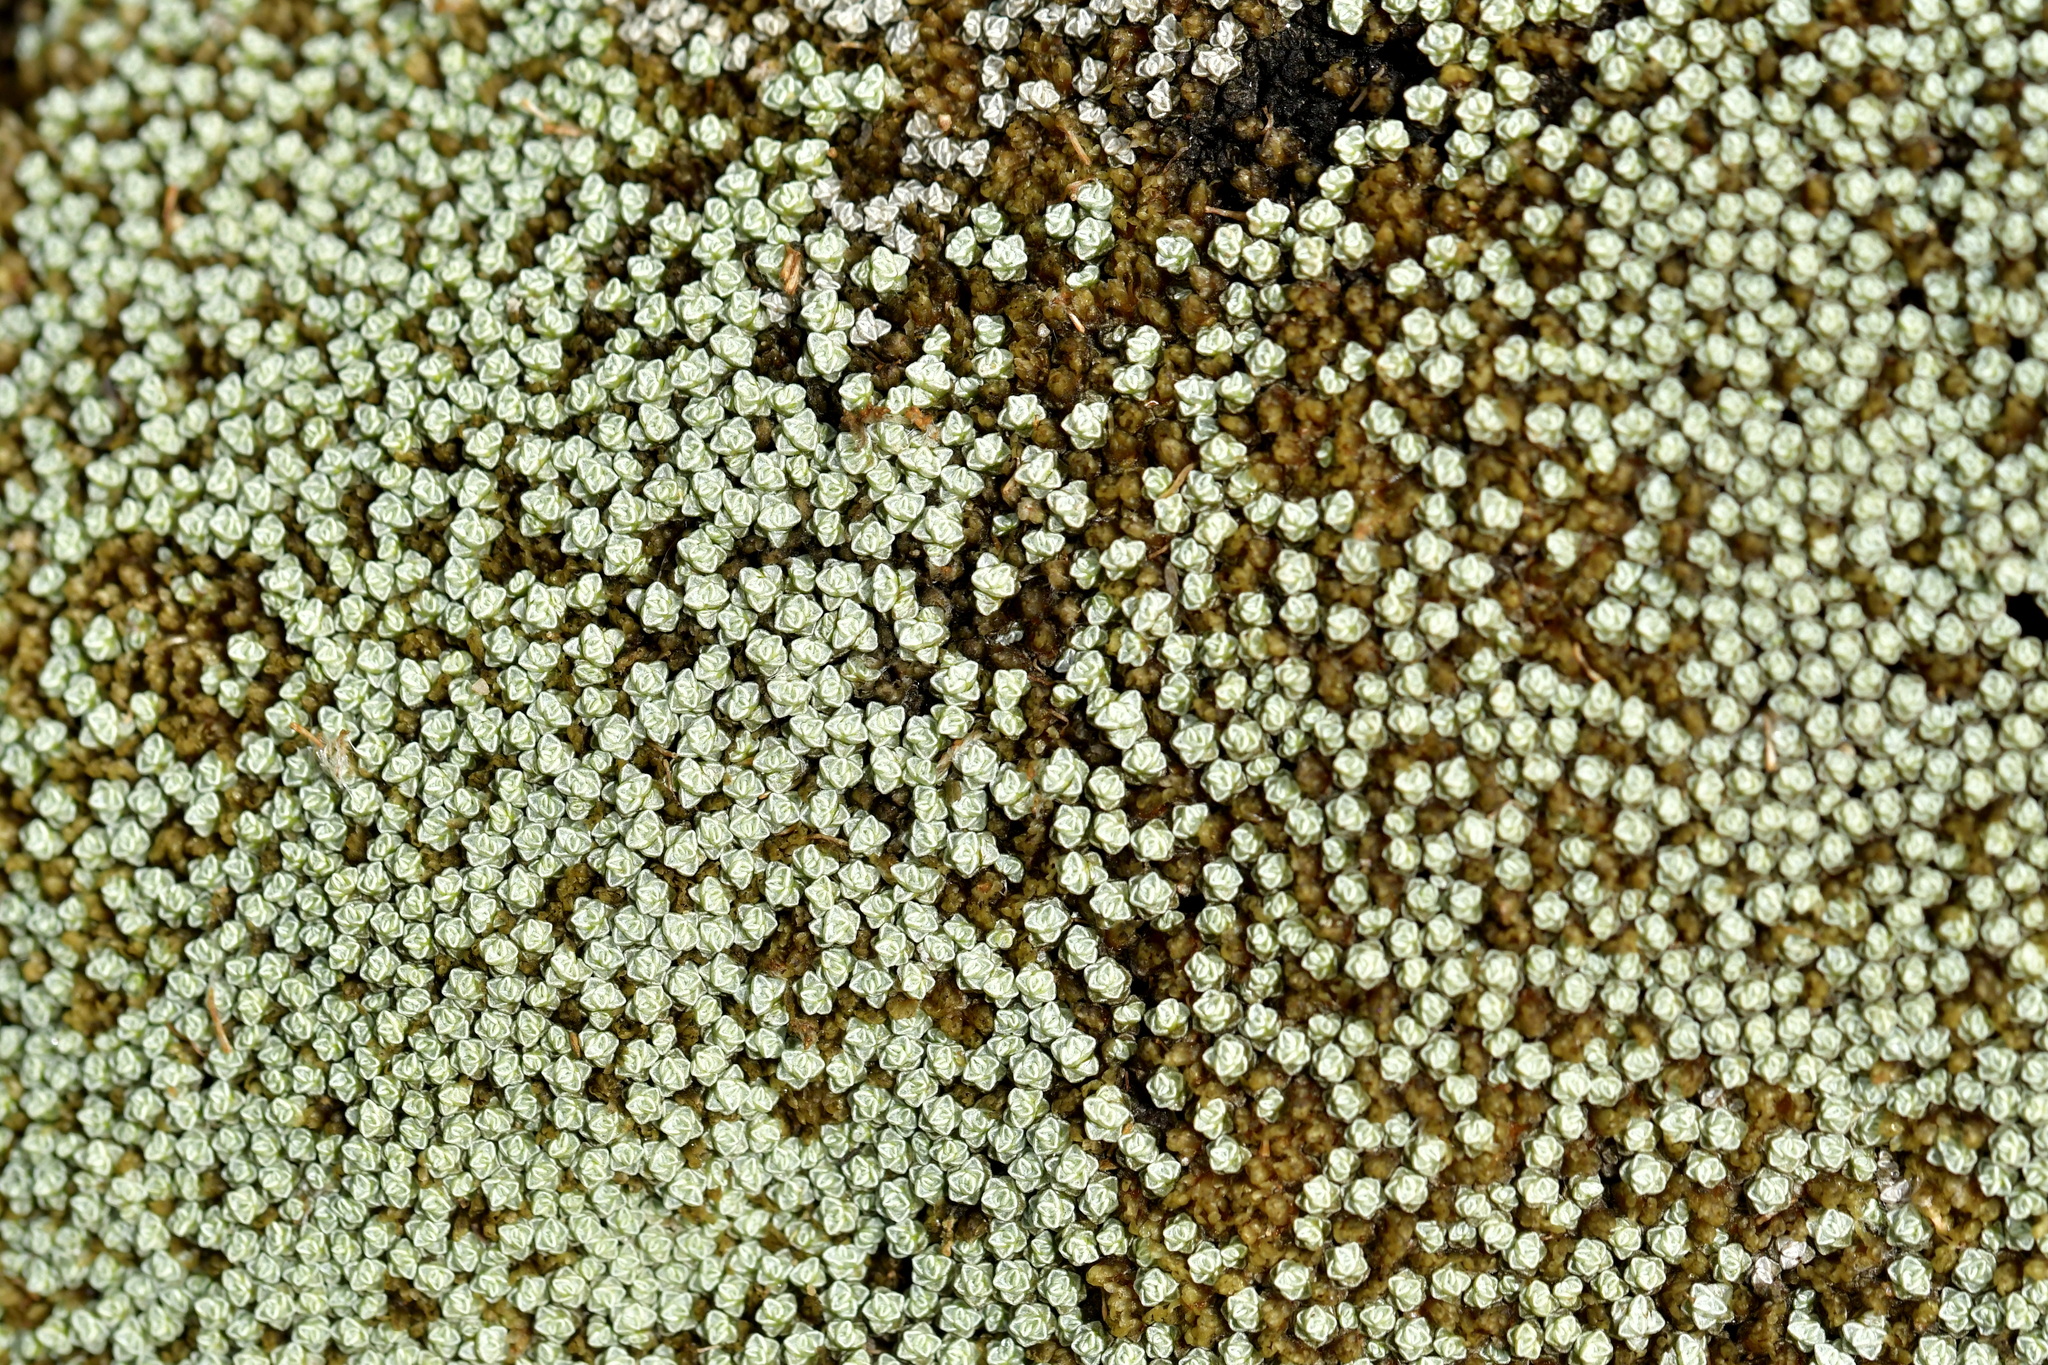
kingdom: Plantae
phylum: Tracheophyta
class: Magnoliopsida
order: Asterales
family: Asteraceae
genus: Raoulia
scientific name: Raoulia australis
